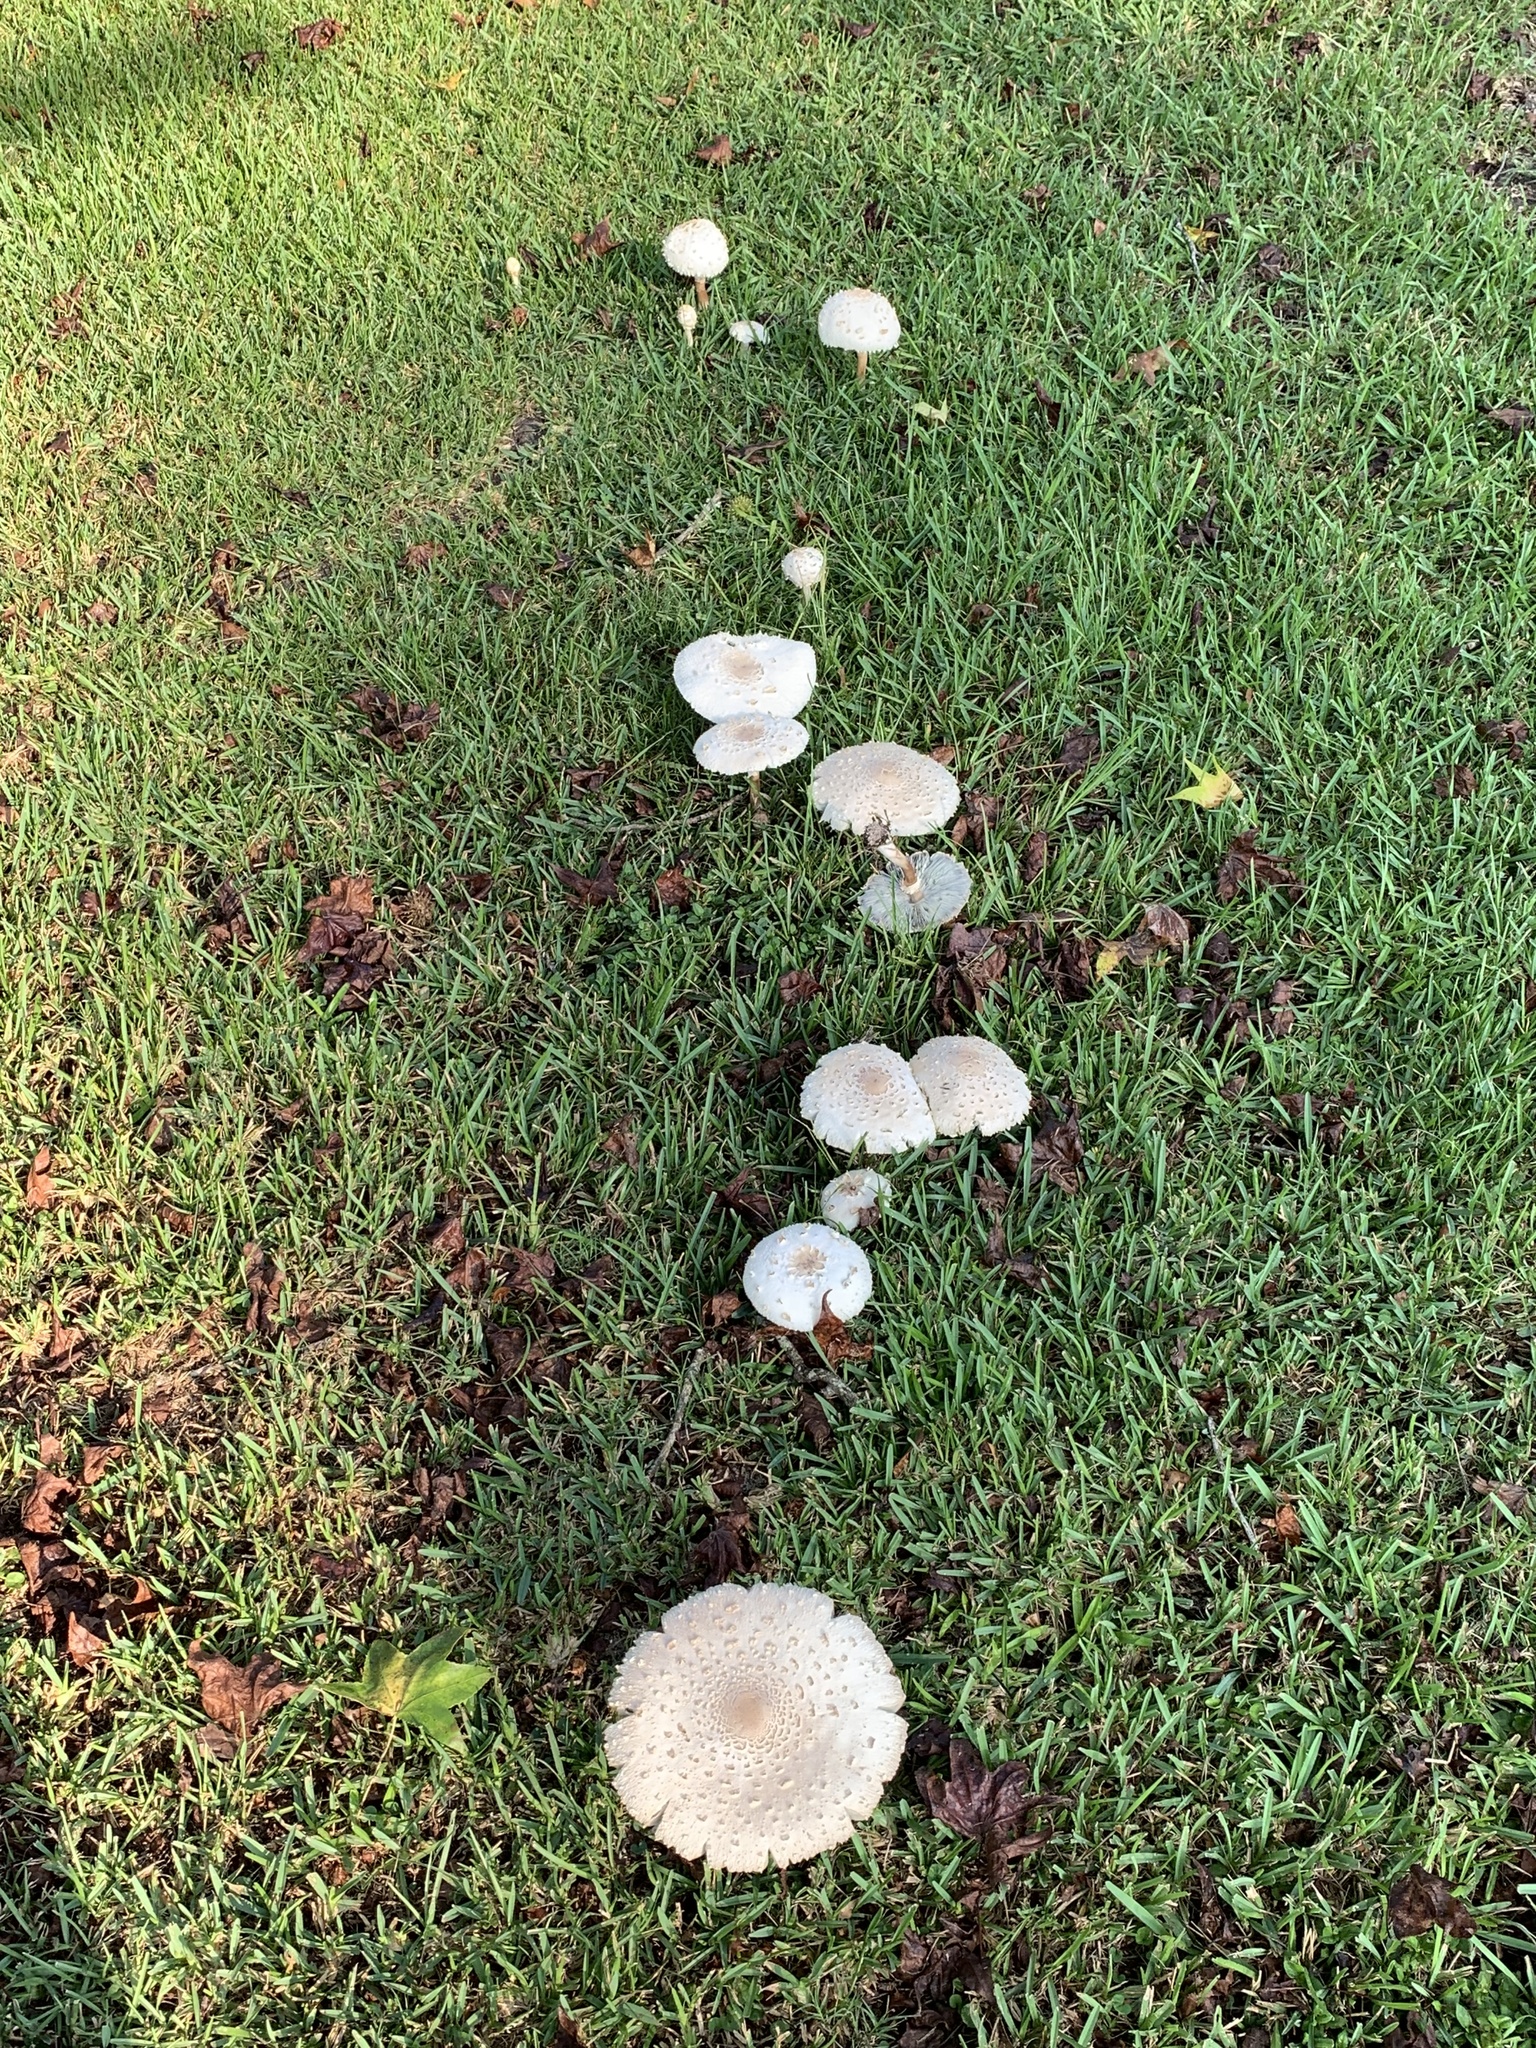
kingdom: Fungi
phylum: Basidiomycota
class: Agaricomycetes
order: Agaricales
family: Agaricaceae
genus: Chlorophyllum
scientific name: Chlorophyllum molybdites
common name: False parasol
